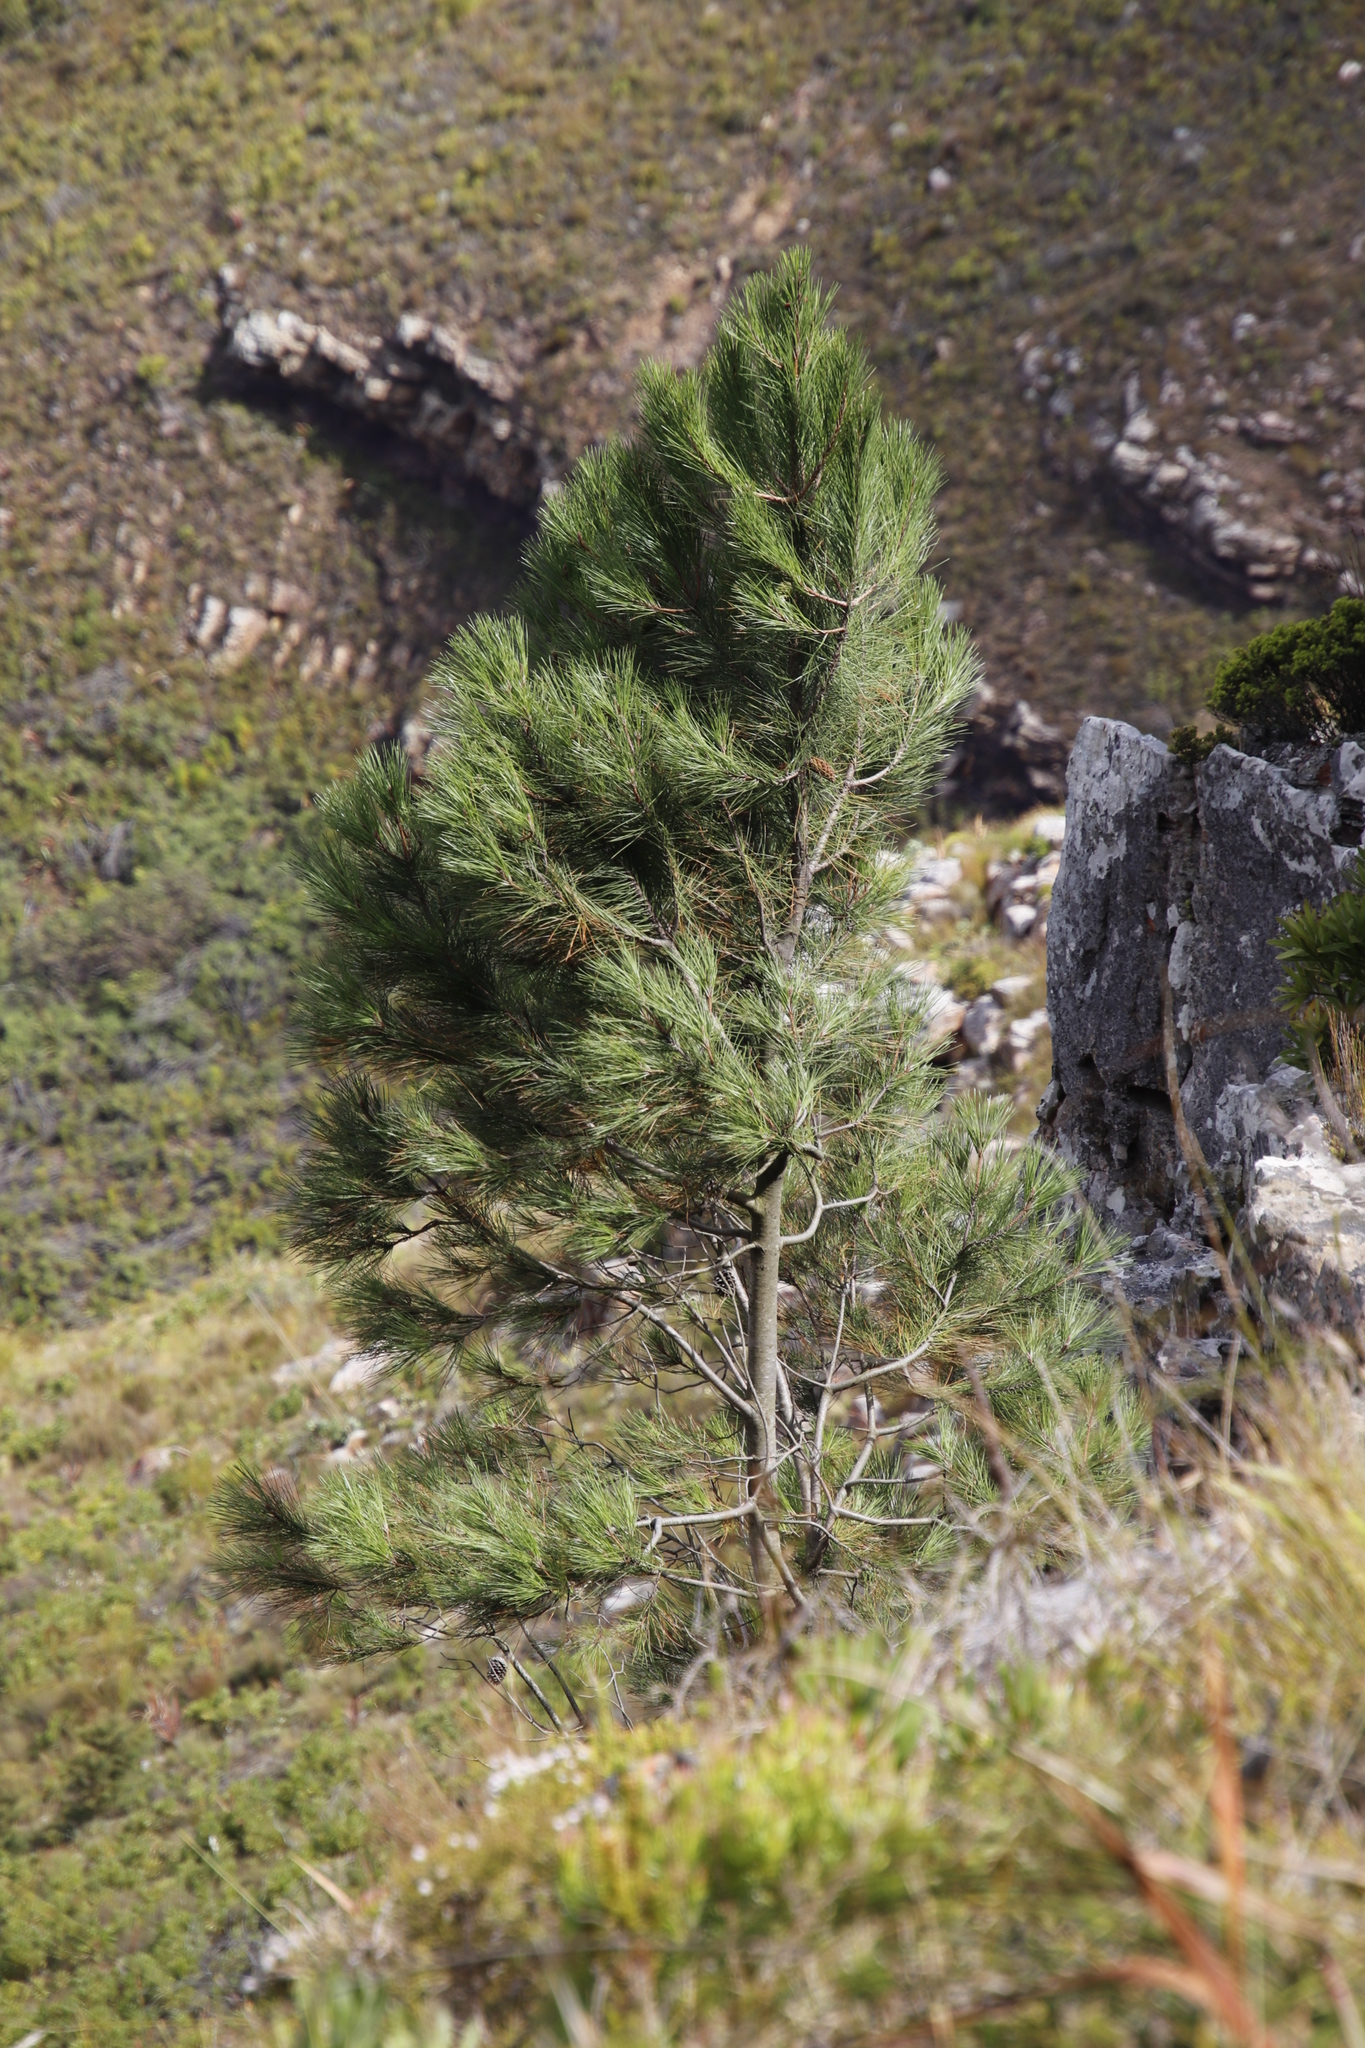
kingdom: Plantae
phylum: Tracheophyta
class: Pinopsida
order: Pinales
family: Pinaceae
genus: Pinus
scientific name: Pinus pinaster
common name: Maritime pine
